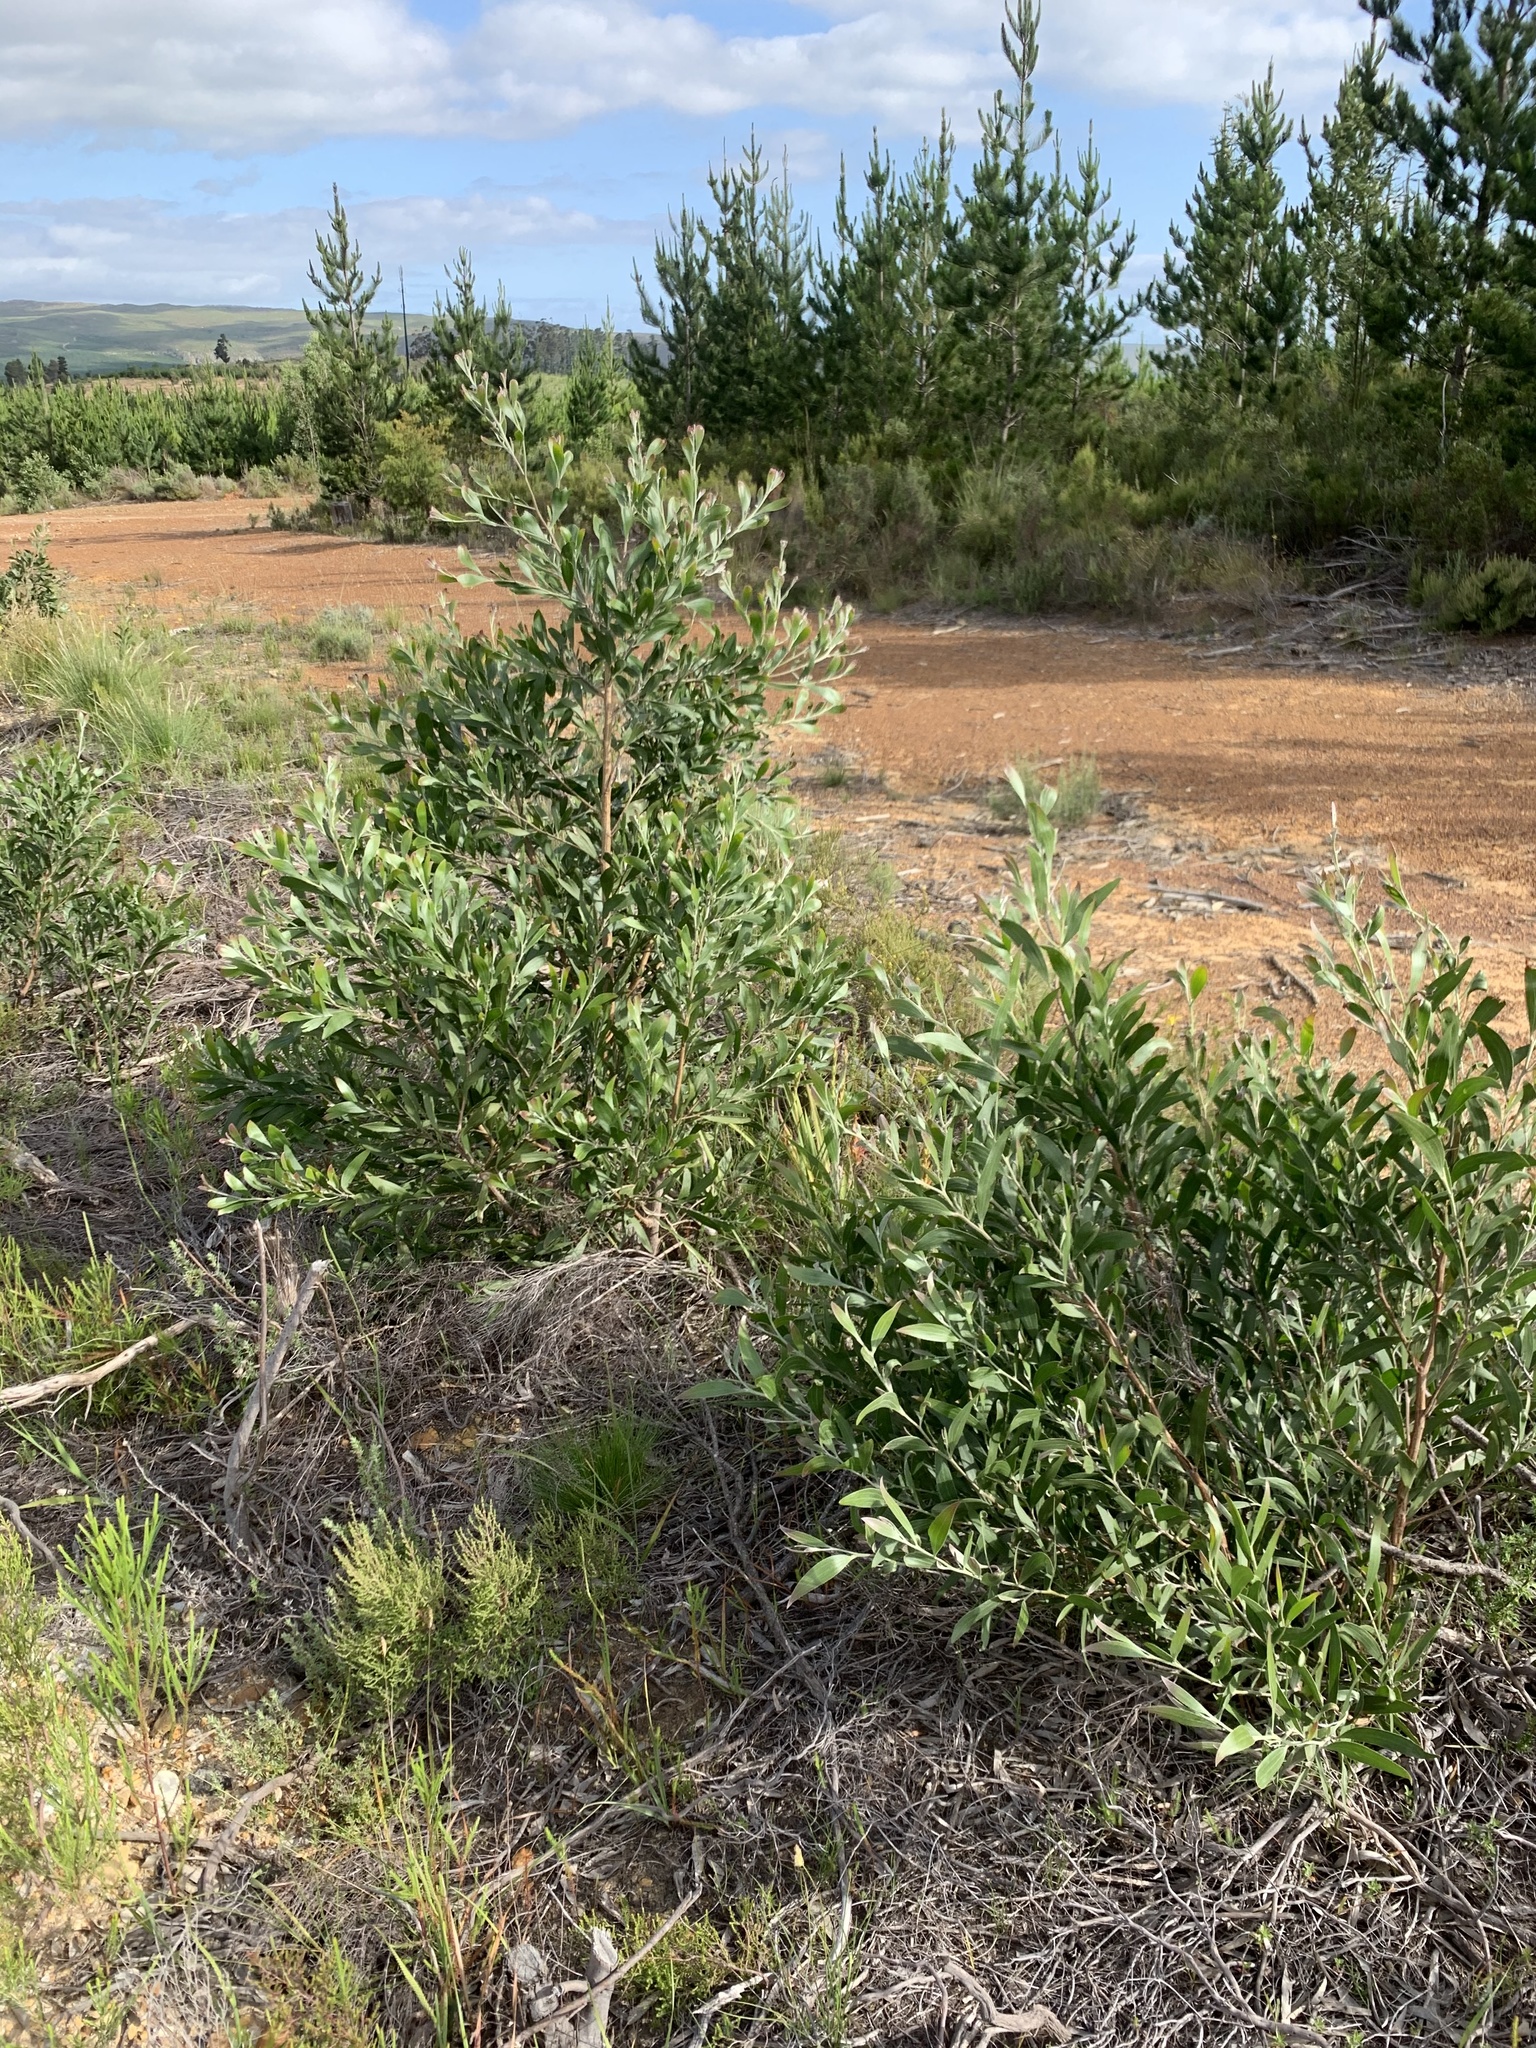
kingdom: Plantae
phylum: Tracheophyta
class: Magnoliopsida
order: Fabales
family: Fabaceae
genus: Acacia
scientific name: Acacia melanoxylon
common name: Blackwood
